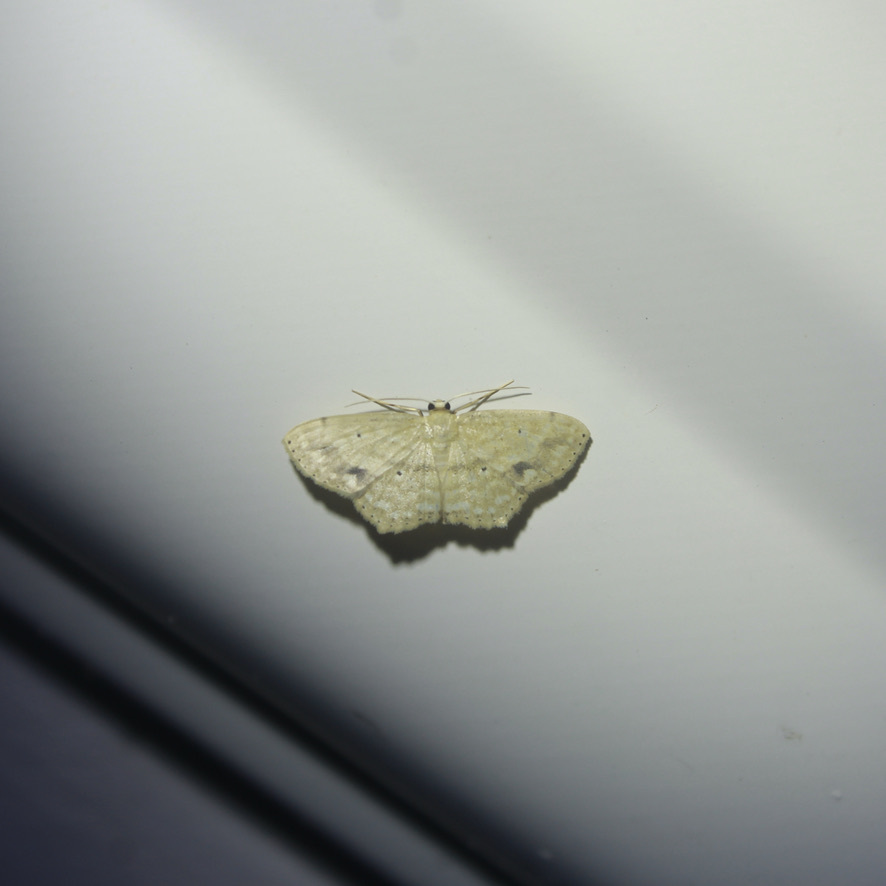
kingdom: Animalia
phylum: Arthropoda
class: Insecta
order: Lepidoptera
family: Geometridae
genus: Scopula
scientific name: Scopula subquadrata
